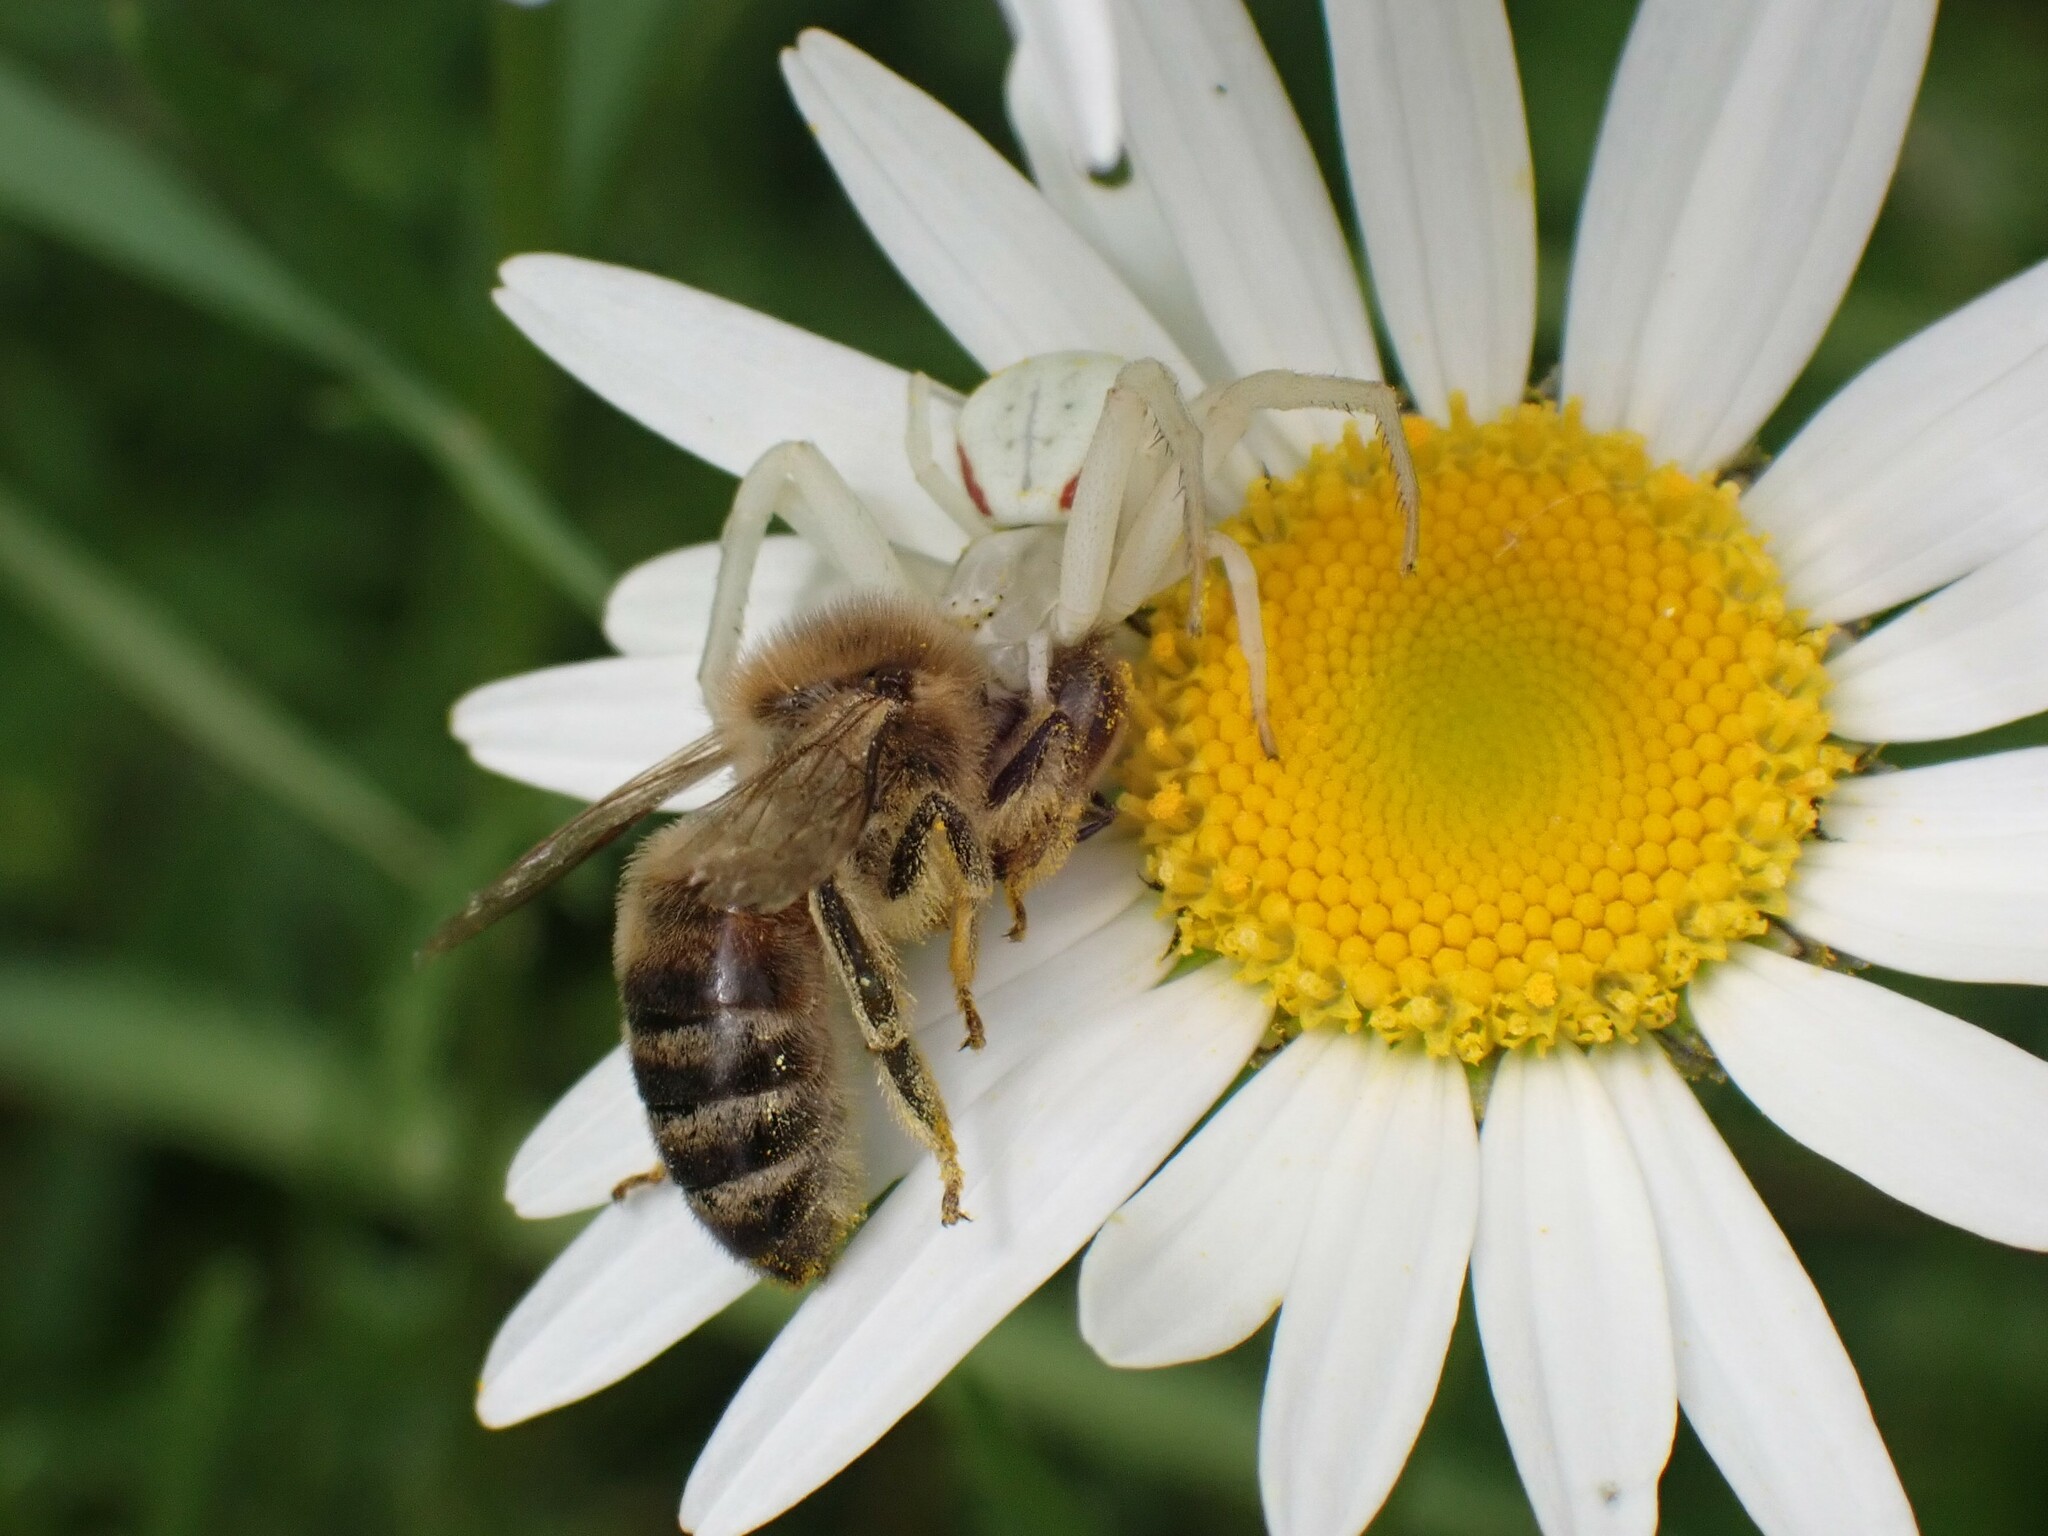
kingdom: Animalia
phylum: Arthropoda
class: Arachnida
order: Araneae
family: Thomisidae
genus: Misumena
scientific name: Misumena vatia
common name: Goldenrod crab spider
